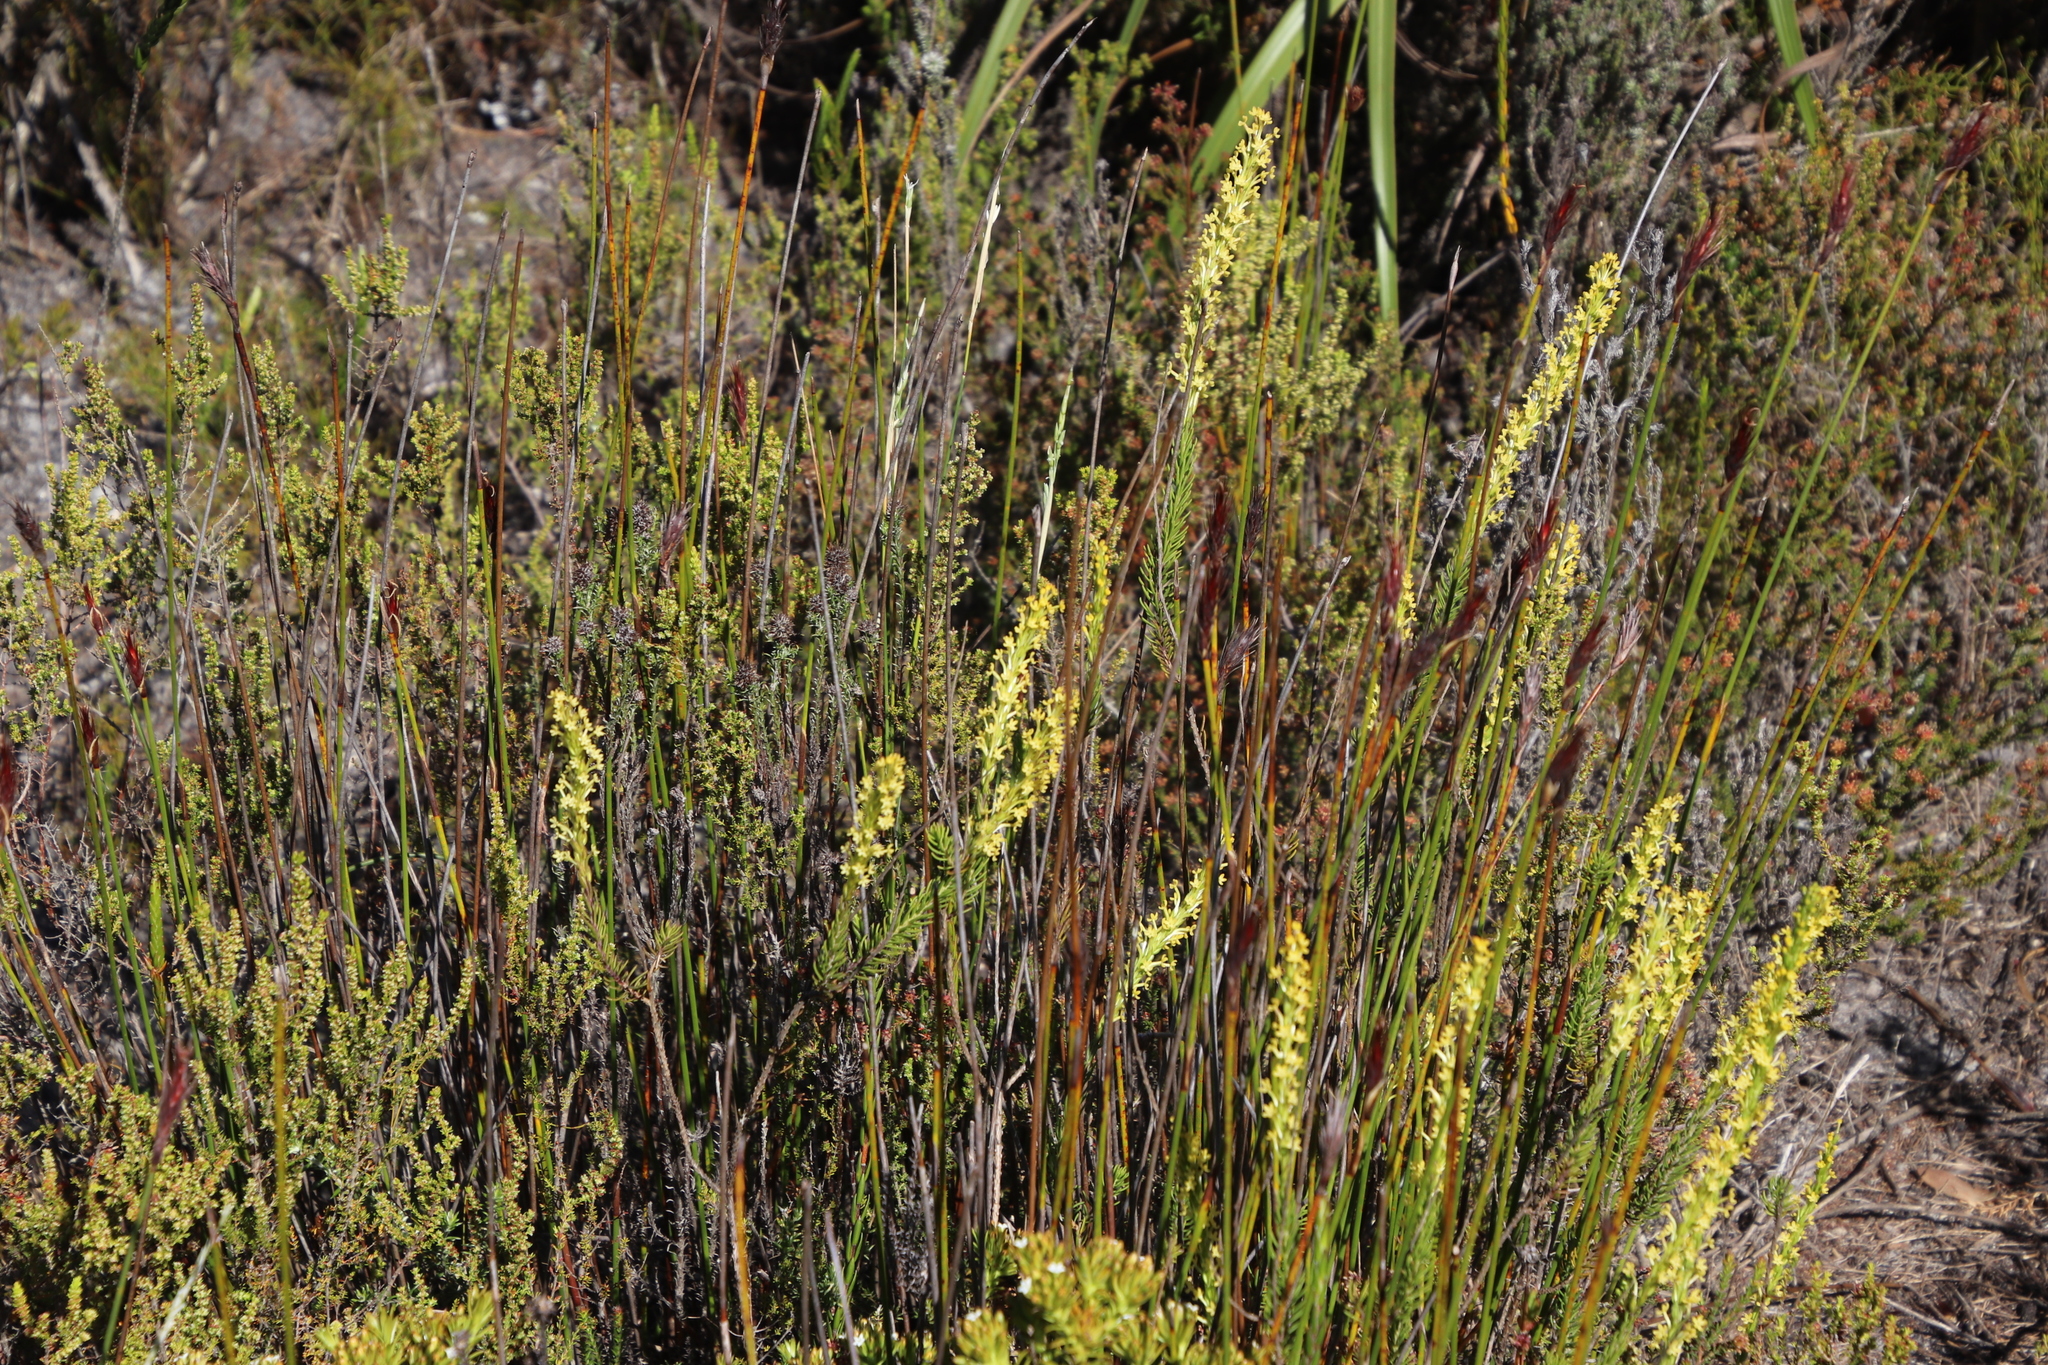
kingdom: Plantae
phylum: Tracheophyta
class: Magnoliopsida
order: Lamiales
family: Scrophulariaceae
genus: Microdon
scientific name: Microdon dubius
